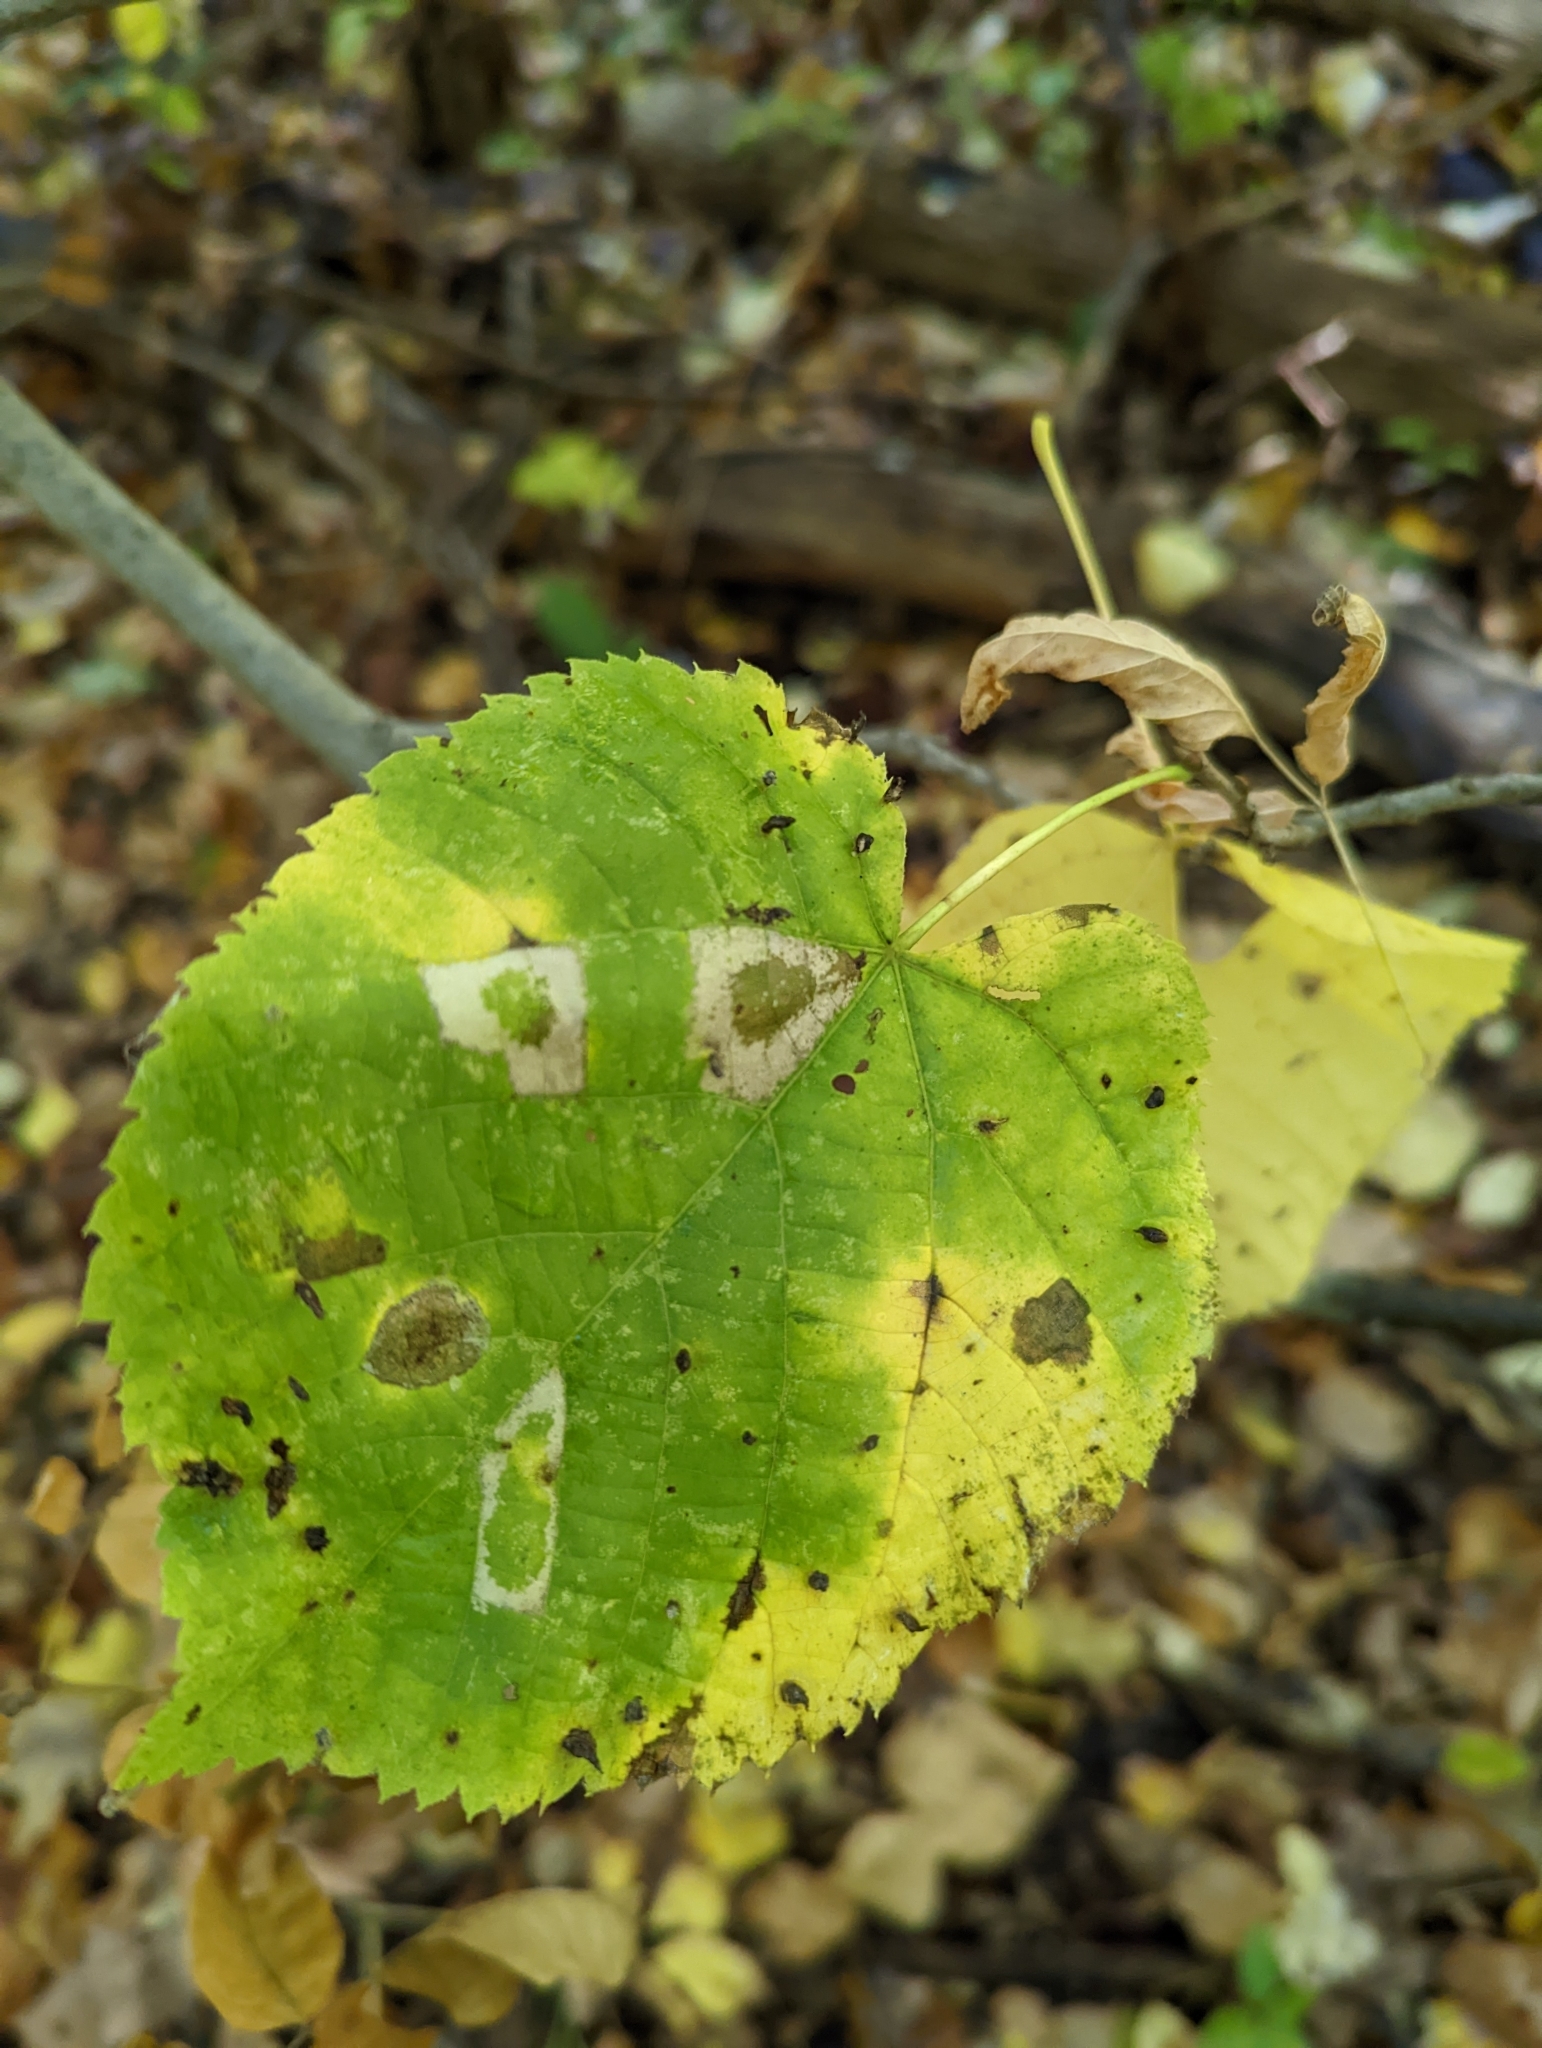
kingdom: Animalia
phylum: Arthropoda
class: Arachnida
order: Trombidiformes
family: Eriophyidae
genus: Eriophyes
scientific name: Eriophyes tiliae
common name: Red nail gall mite
